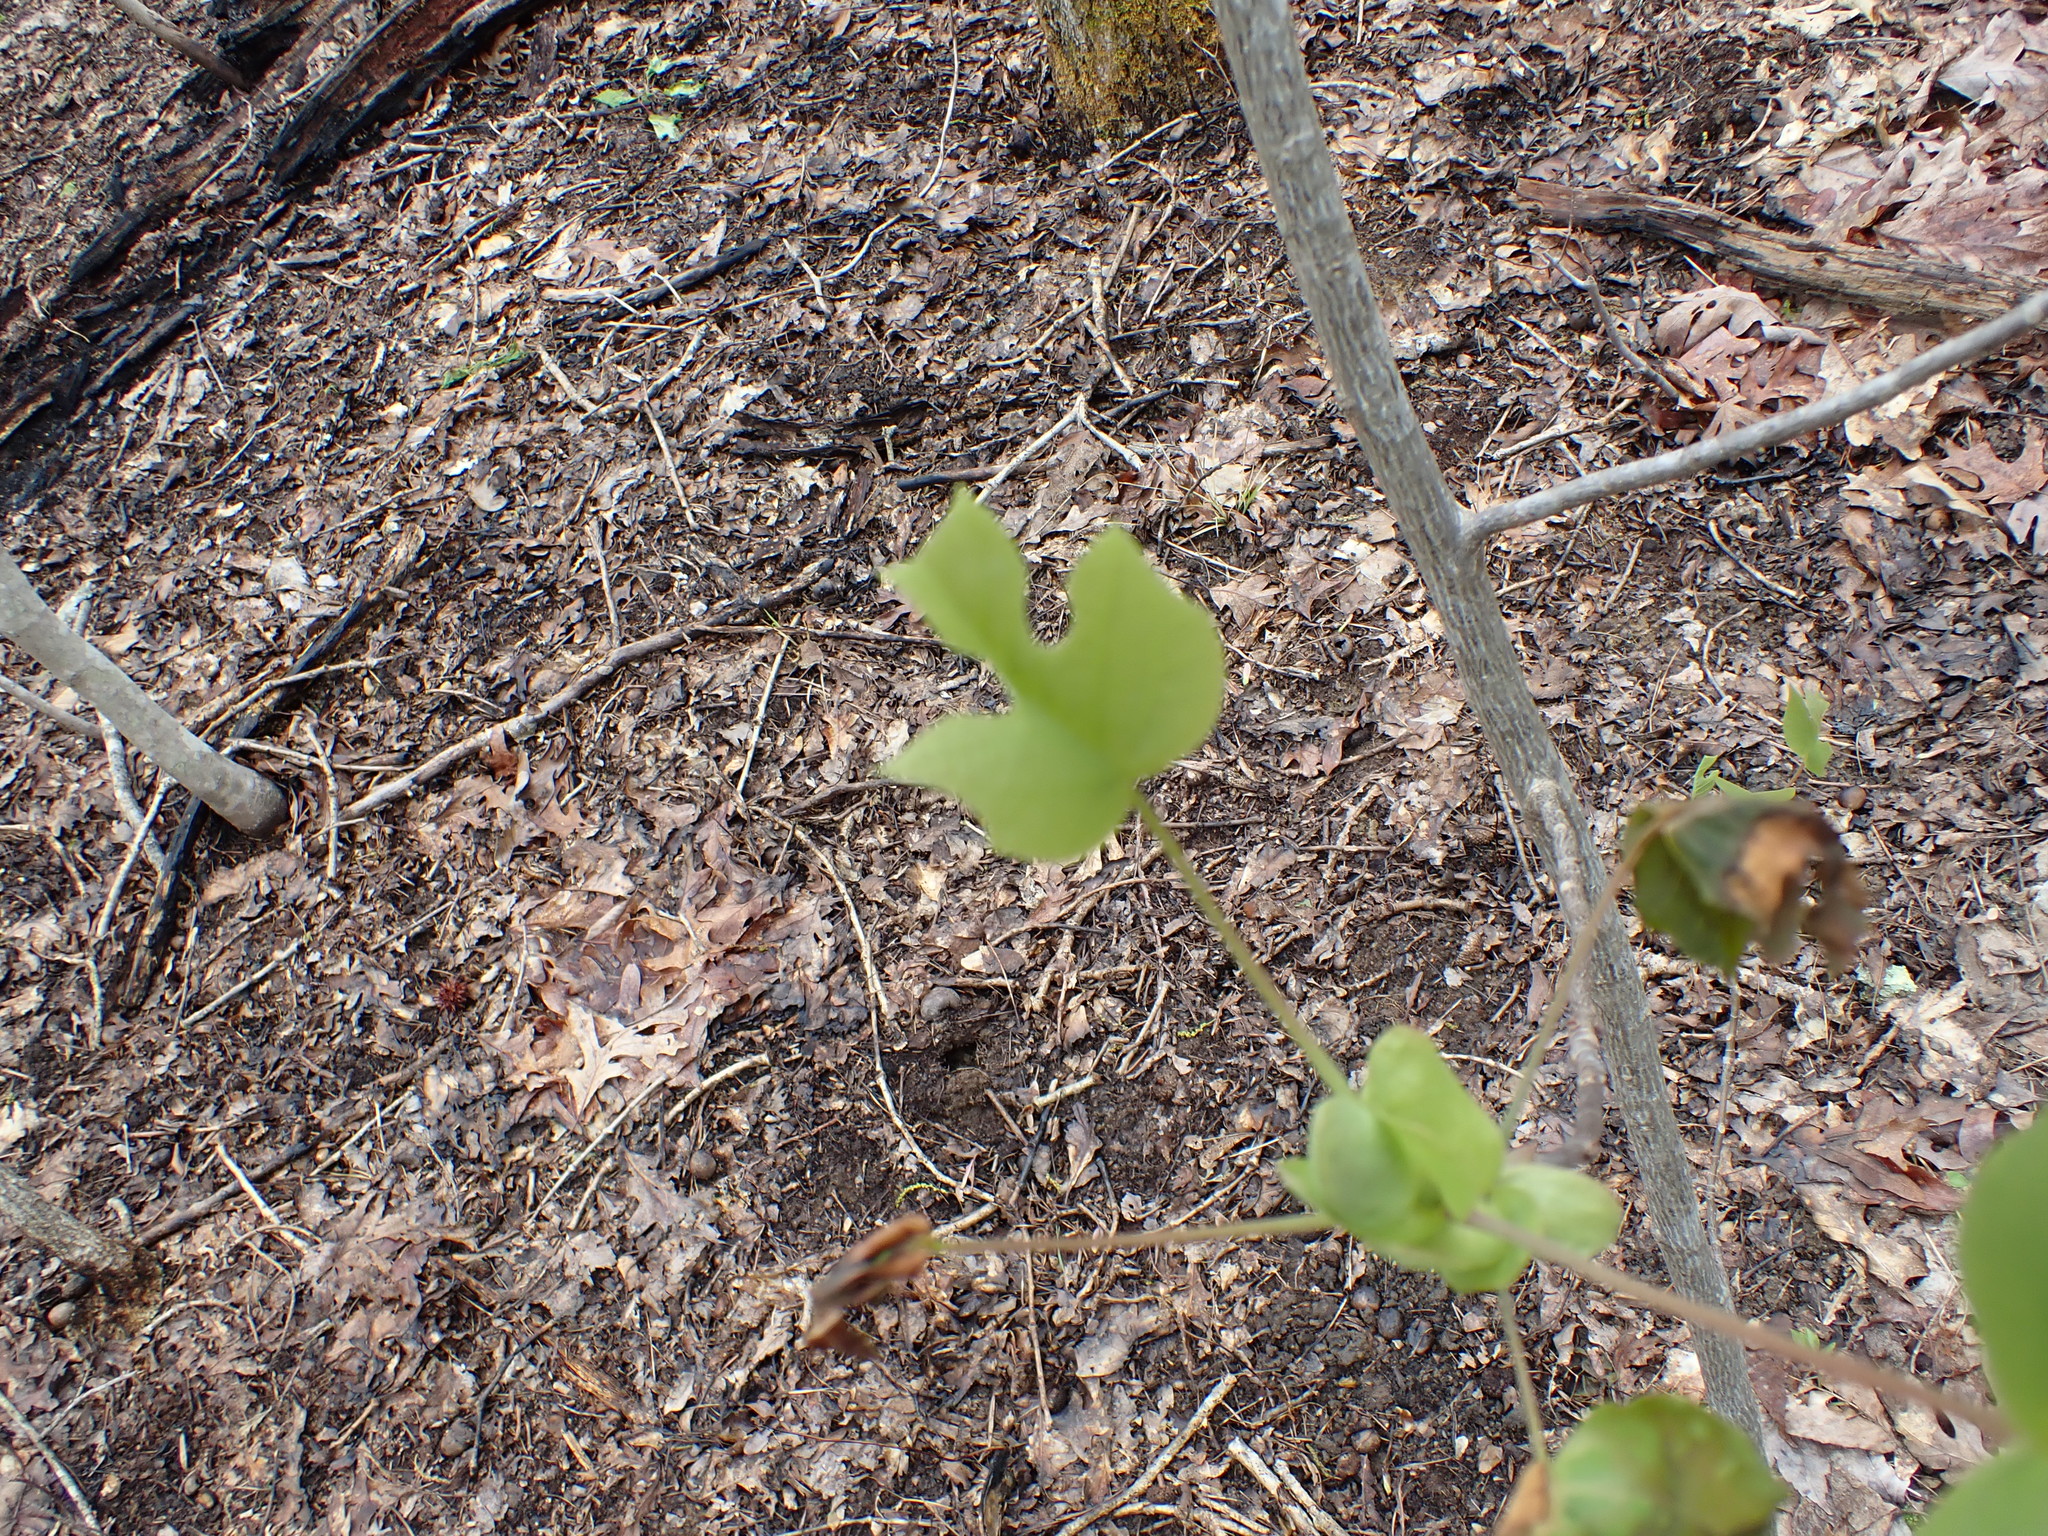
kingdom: Plantae
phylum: Tracheophyta
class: Magnoliopsida
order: Magnoliales
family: Magnoliaceae
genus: Liriodendron
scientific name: Liriodendron tulipifera
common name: Tulip tree
